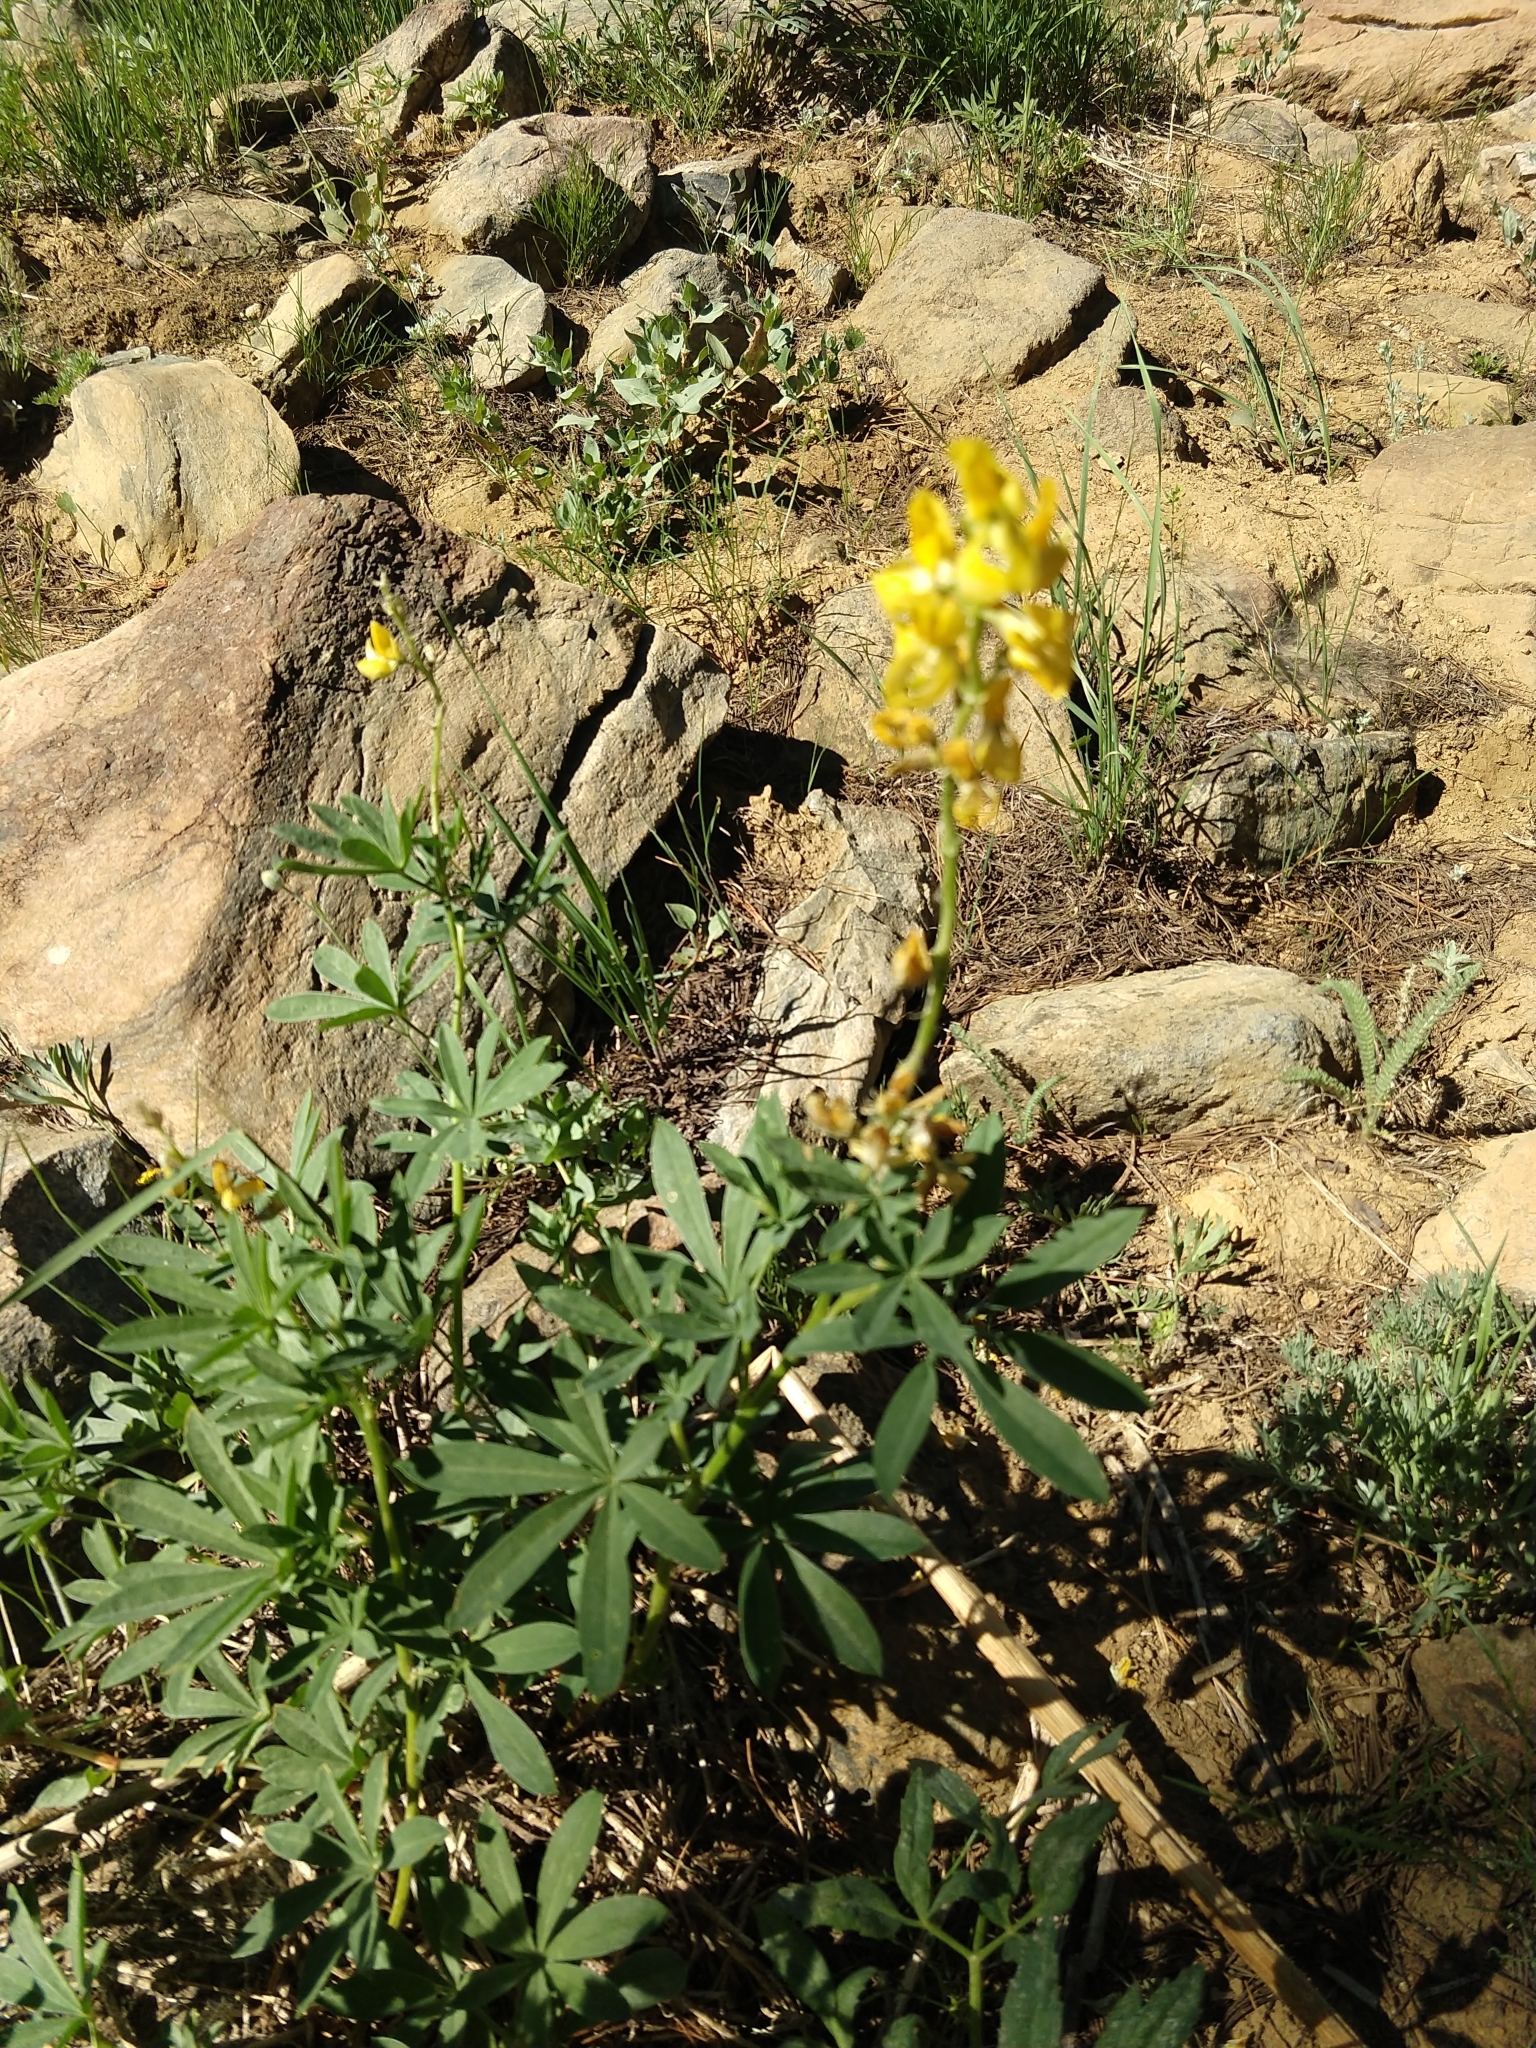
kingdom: Plantae
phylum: Tracheophyta
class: Magnoliopsida
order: Fabales
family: Fabaceae
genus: Lupinus
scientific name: Lupinus croceus
